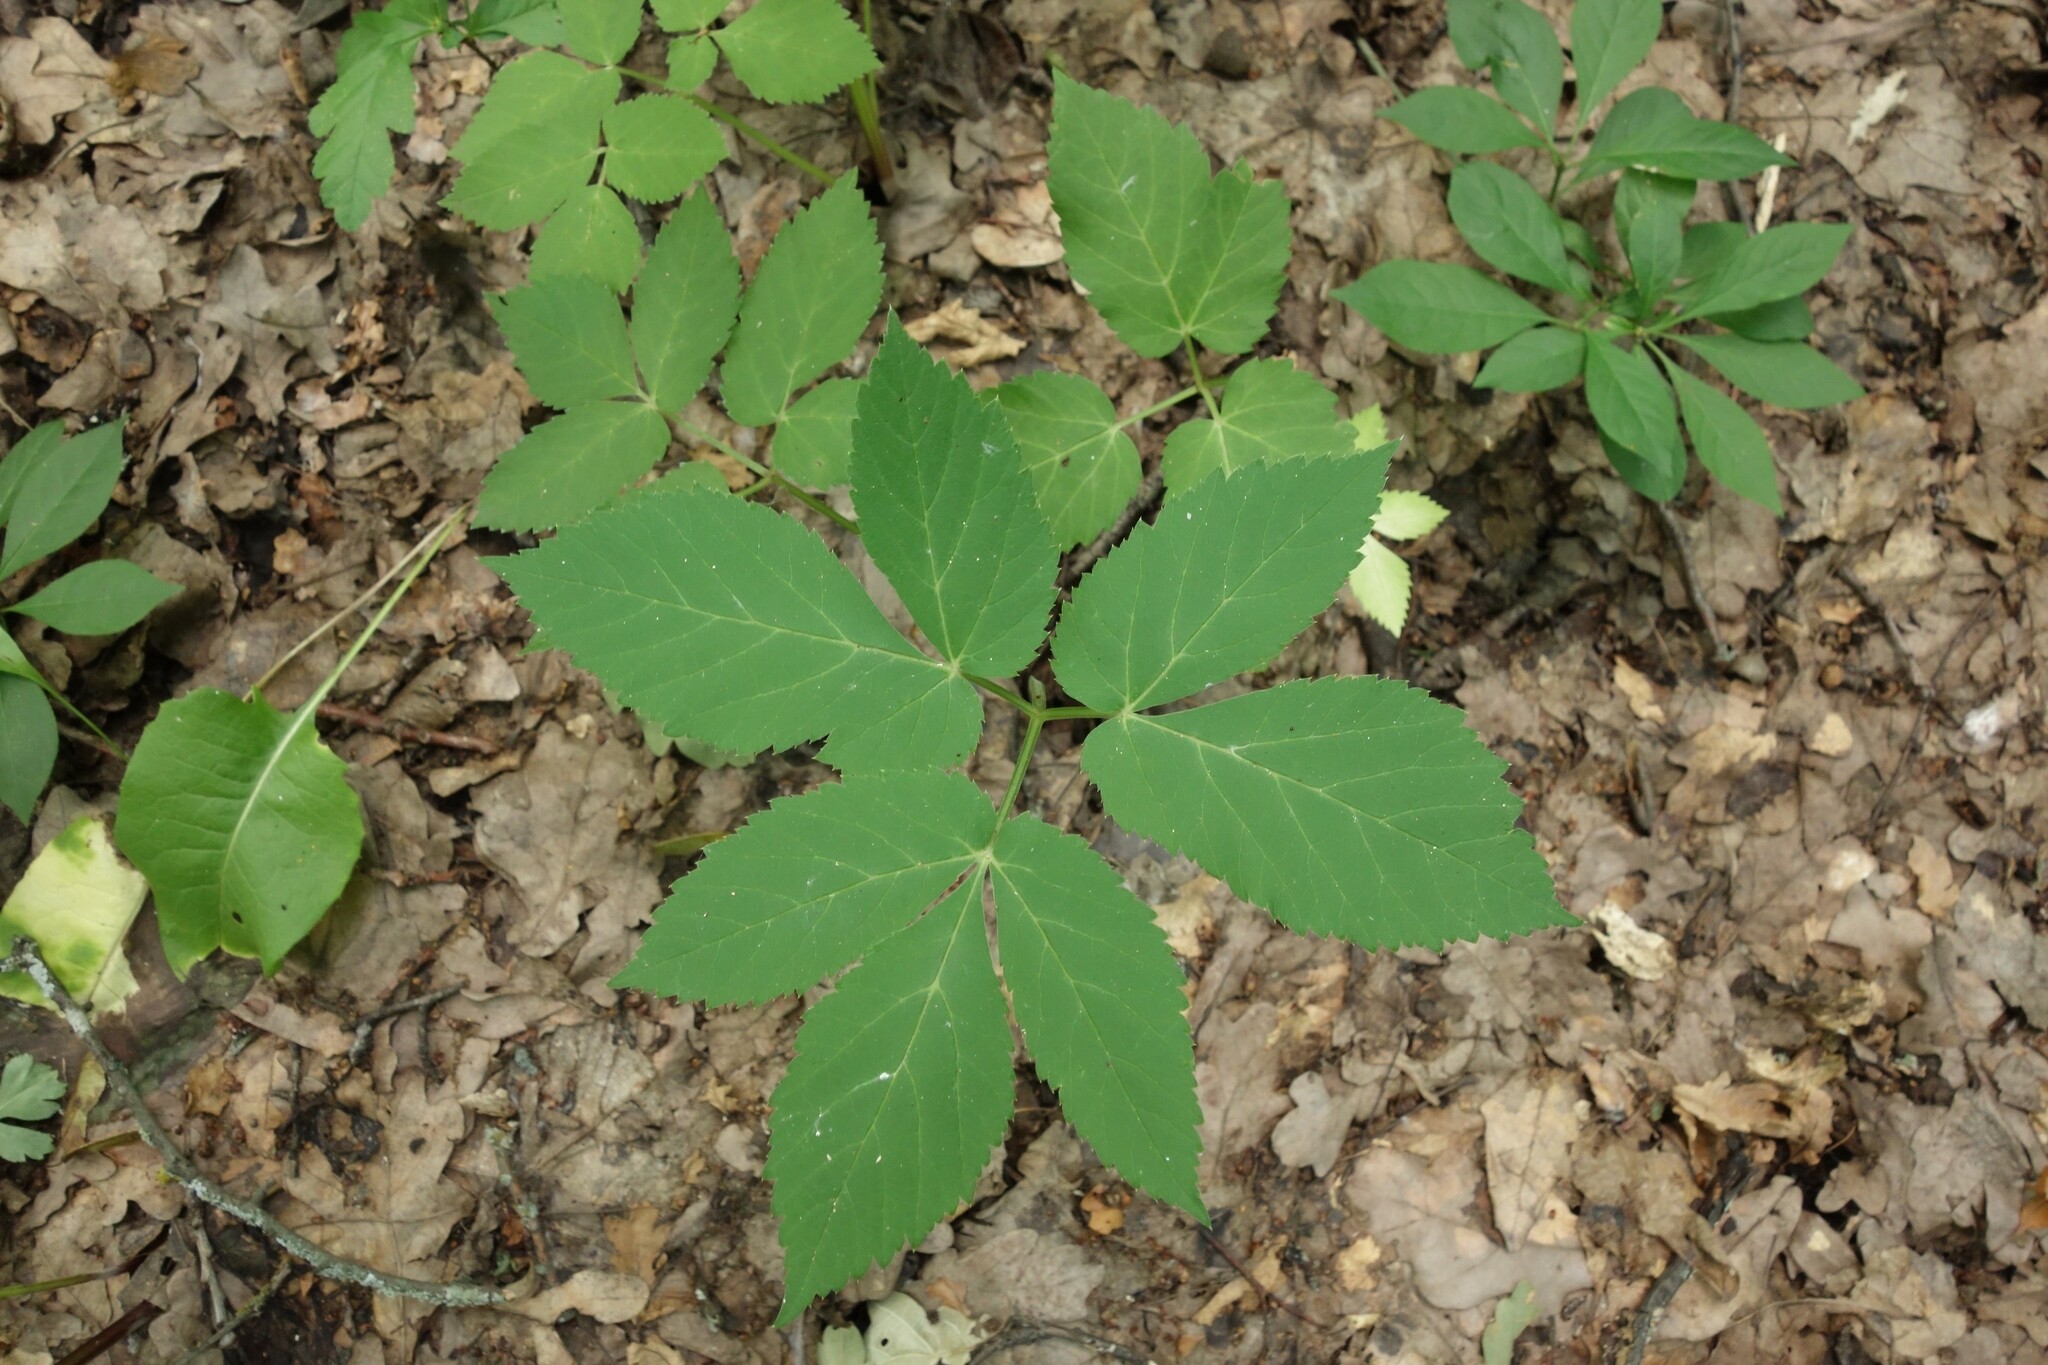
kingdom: Plantae
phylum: Tracheophyta
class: Magnoliopsida
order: Apiales
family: Apiaceae
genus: Aegopodium
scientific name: Aegopodium podagraria
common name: Ground-elder
